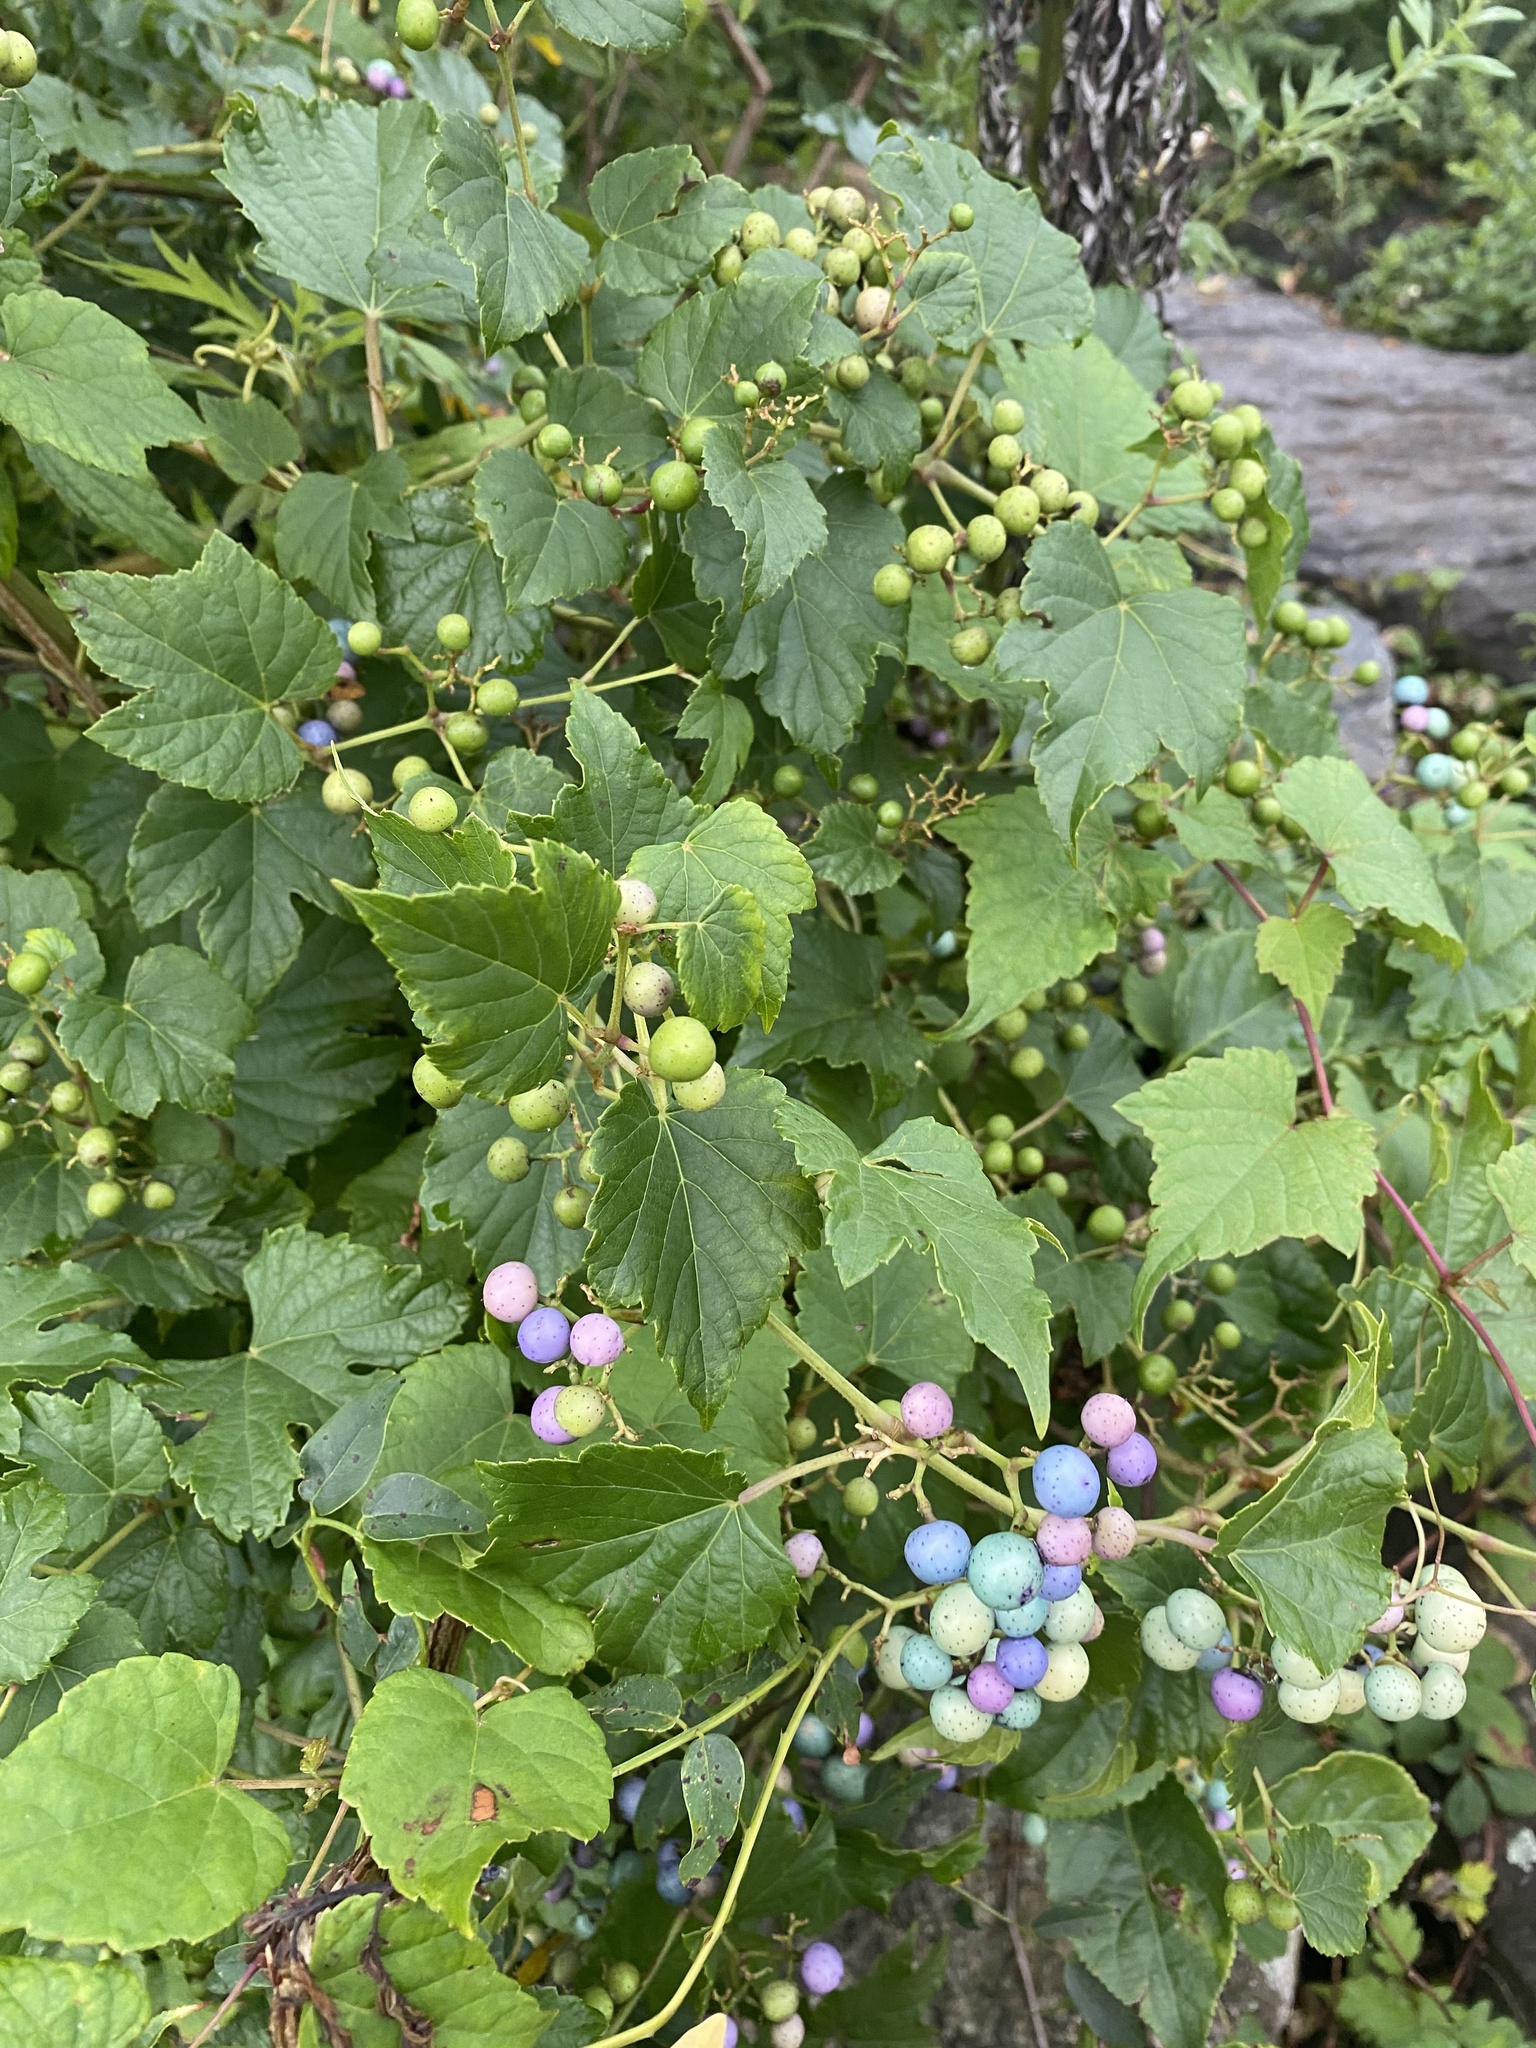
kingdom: Plantae
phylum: Tracheophyta
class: Magnoliopsida
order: Vitales
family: Vitaceae
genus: Ampelopsis
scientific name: Ampelopsis glandulosa
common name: Amur peppervine
